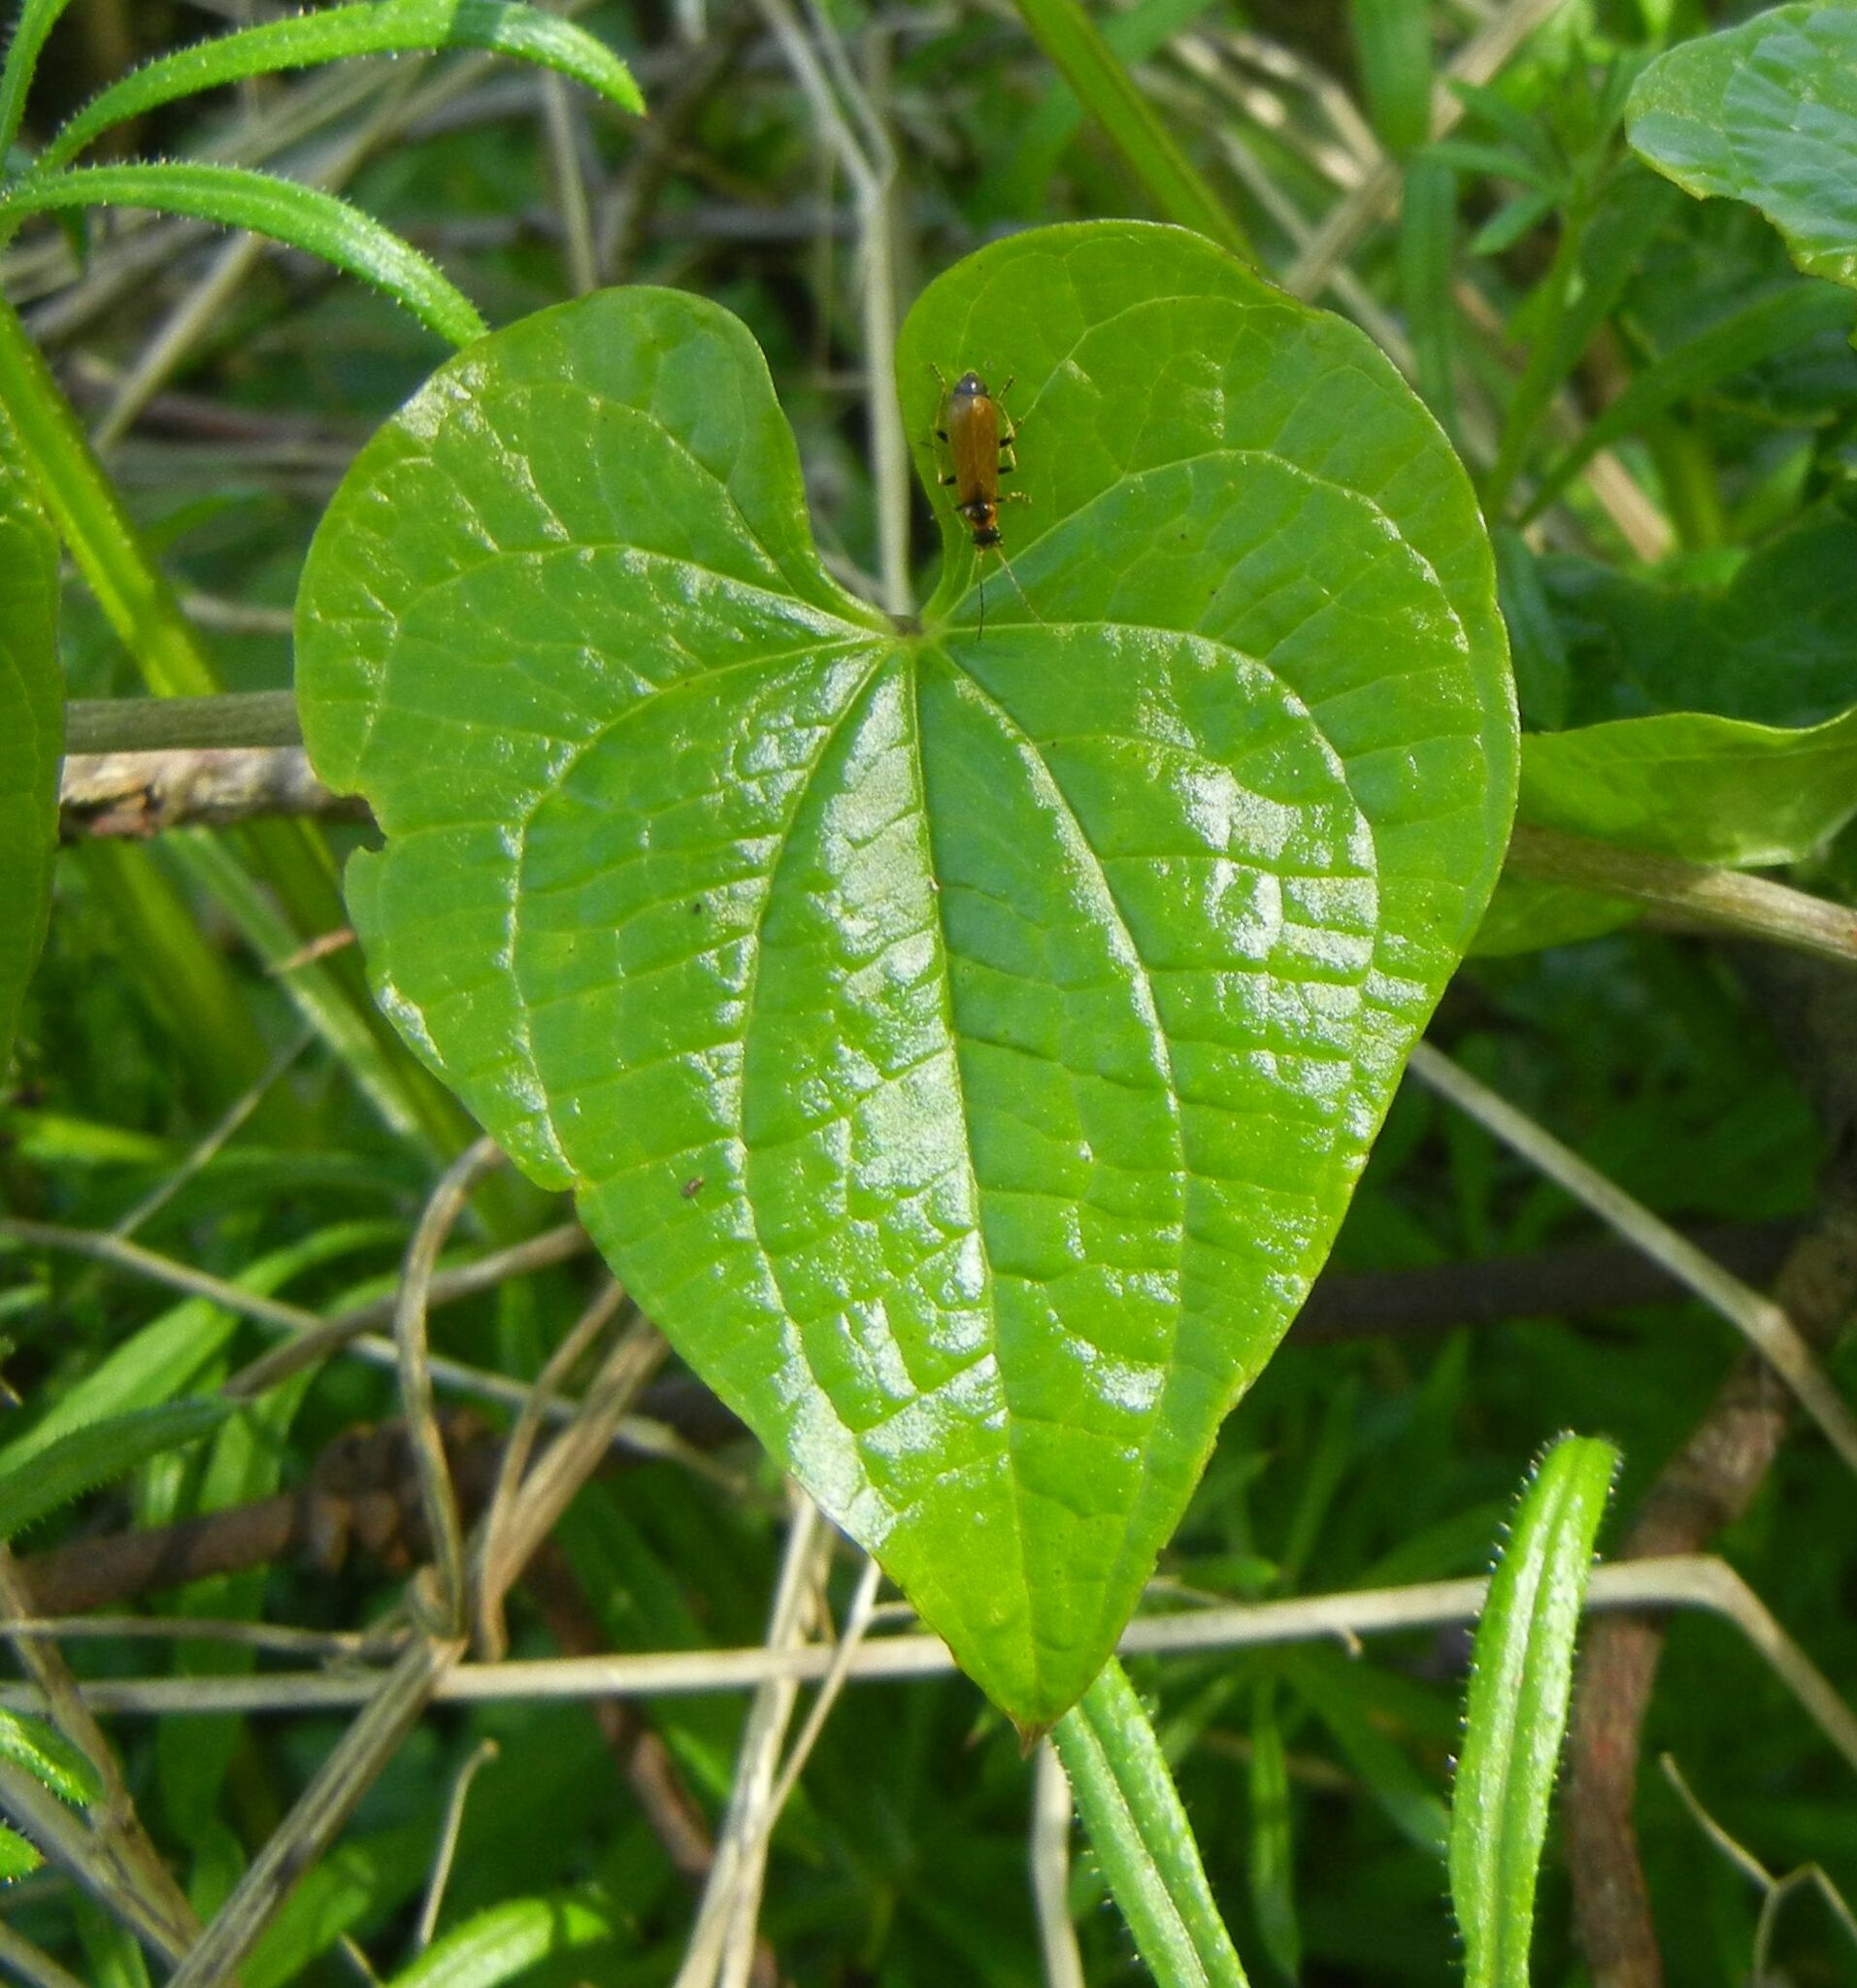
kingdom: Plantae
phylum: Tracheophyta
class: Liliopsida
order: Dioscoreales
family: Dioscoreaceae
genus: Dioscorea
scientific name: Dioscorea communis
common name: Black-bindweed
